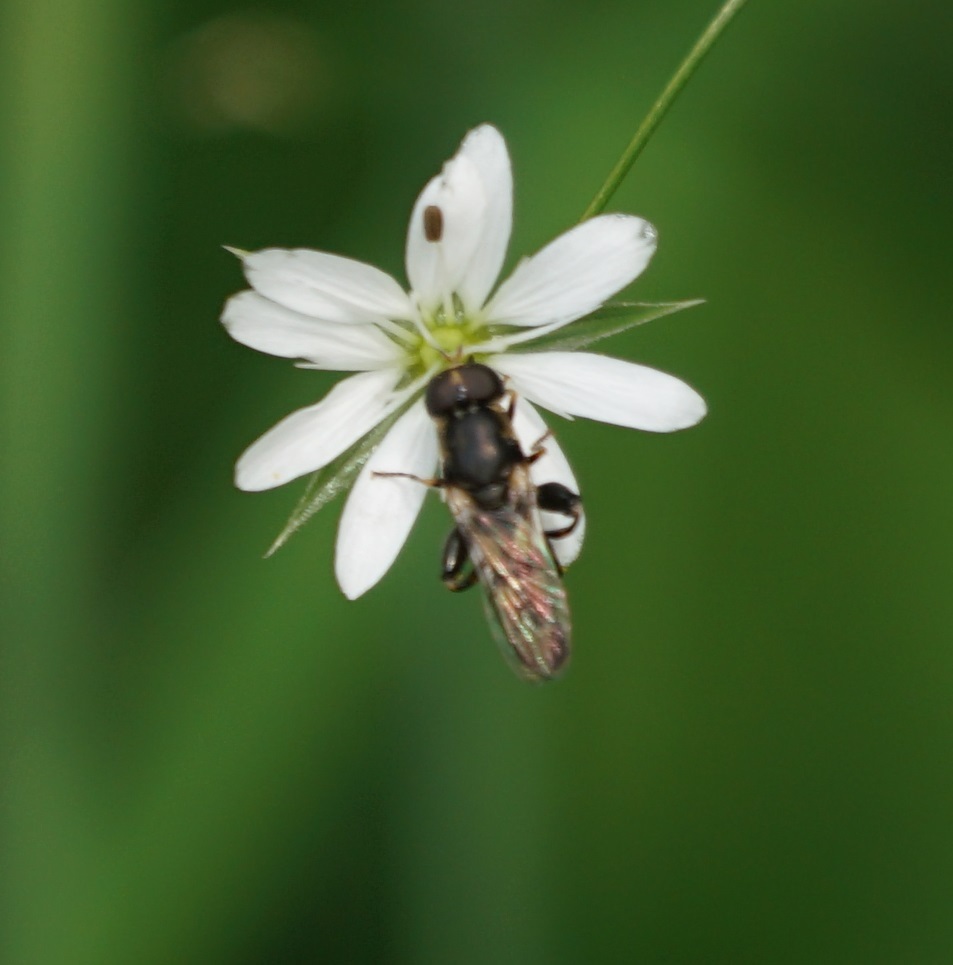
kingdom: Animalia
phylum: Arthropoda
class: Insecta
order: Diptera
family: Syrphidae
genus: Syritta
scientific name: Syritta pipiens
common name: Hover fly
